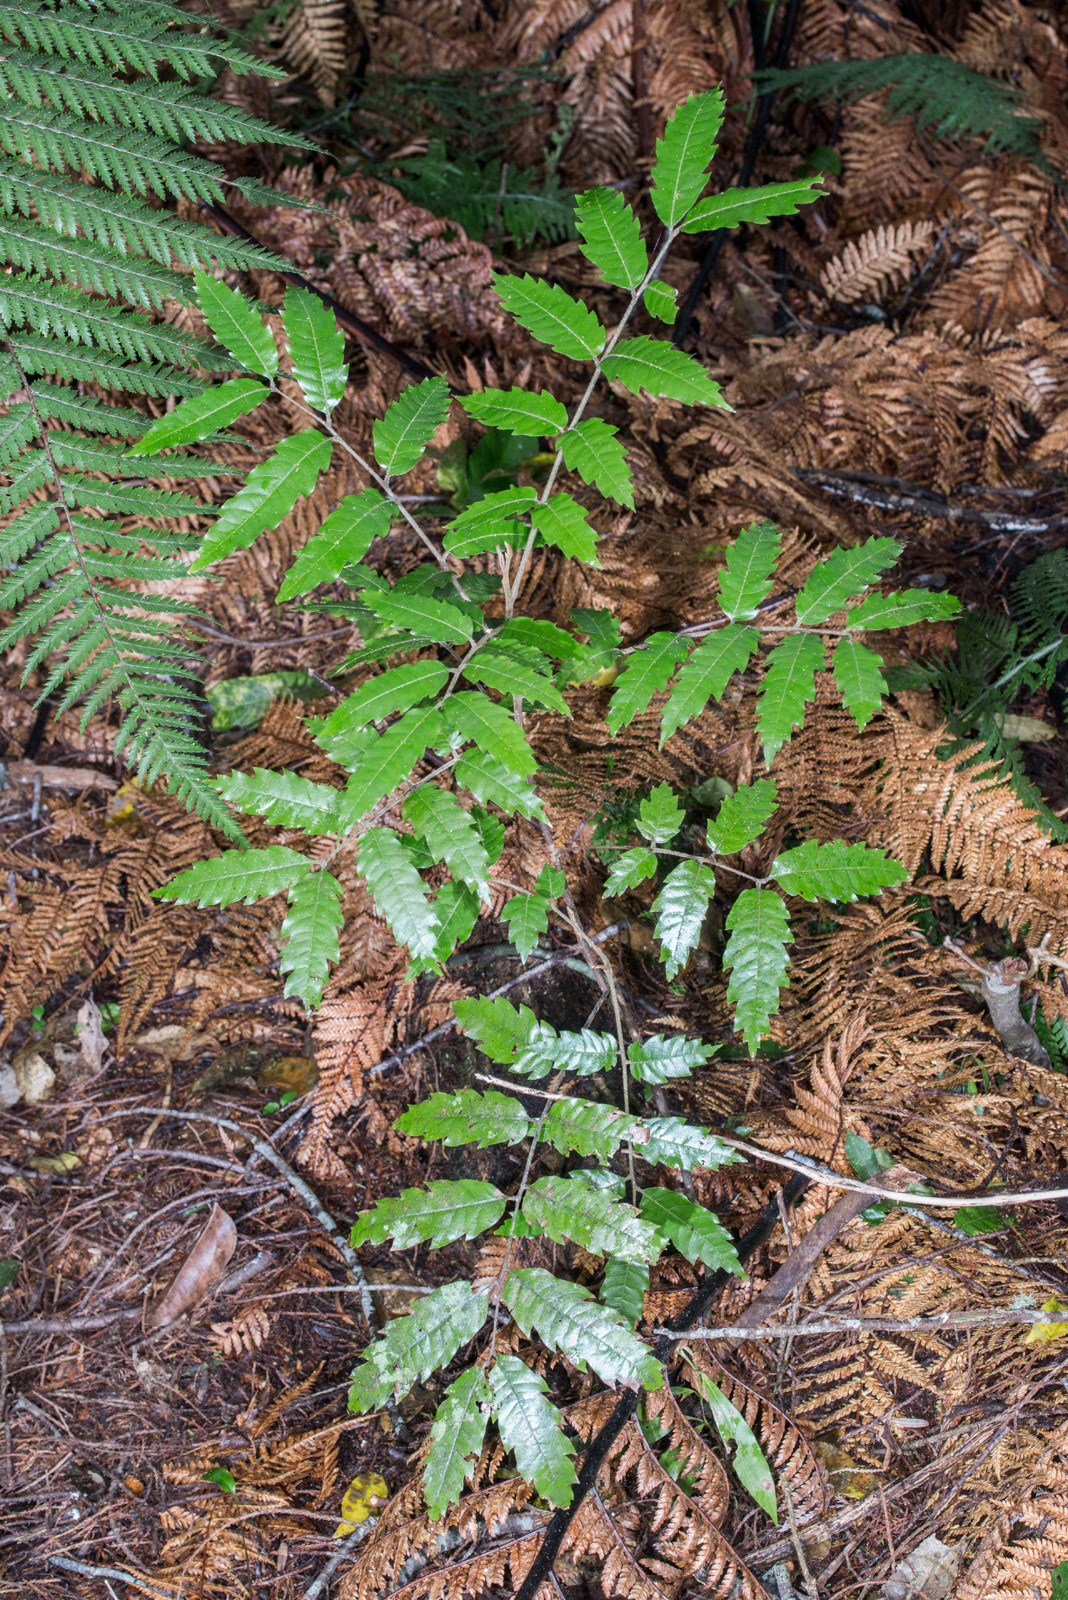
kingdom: Plantae
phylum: Tracheophyta
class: Magnoliopsida
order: Sapindales
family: Sapindaceae
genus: Alectryon
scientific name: Alectryon excelsus
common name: Three kings titoki
